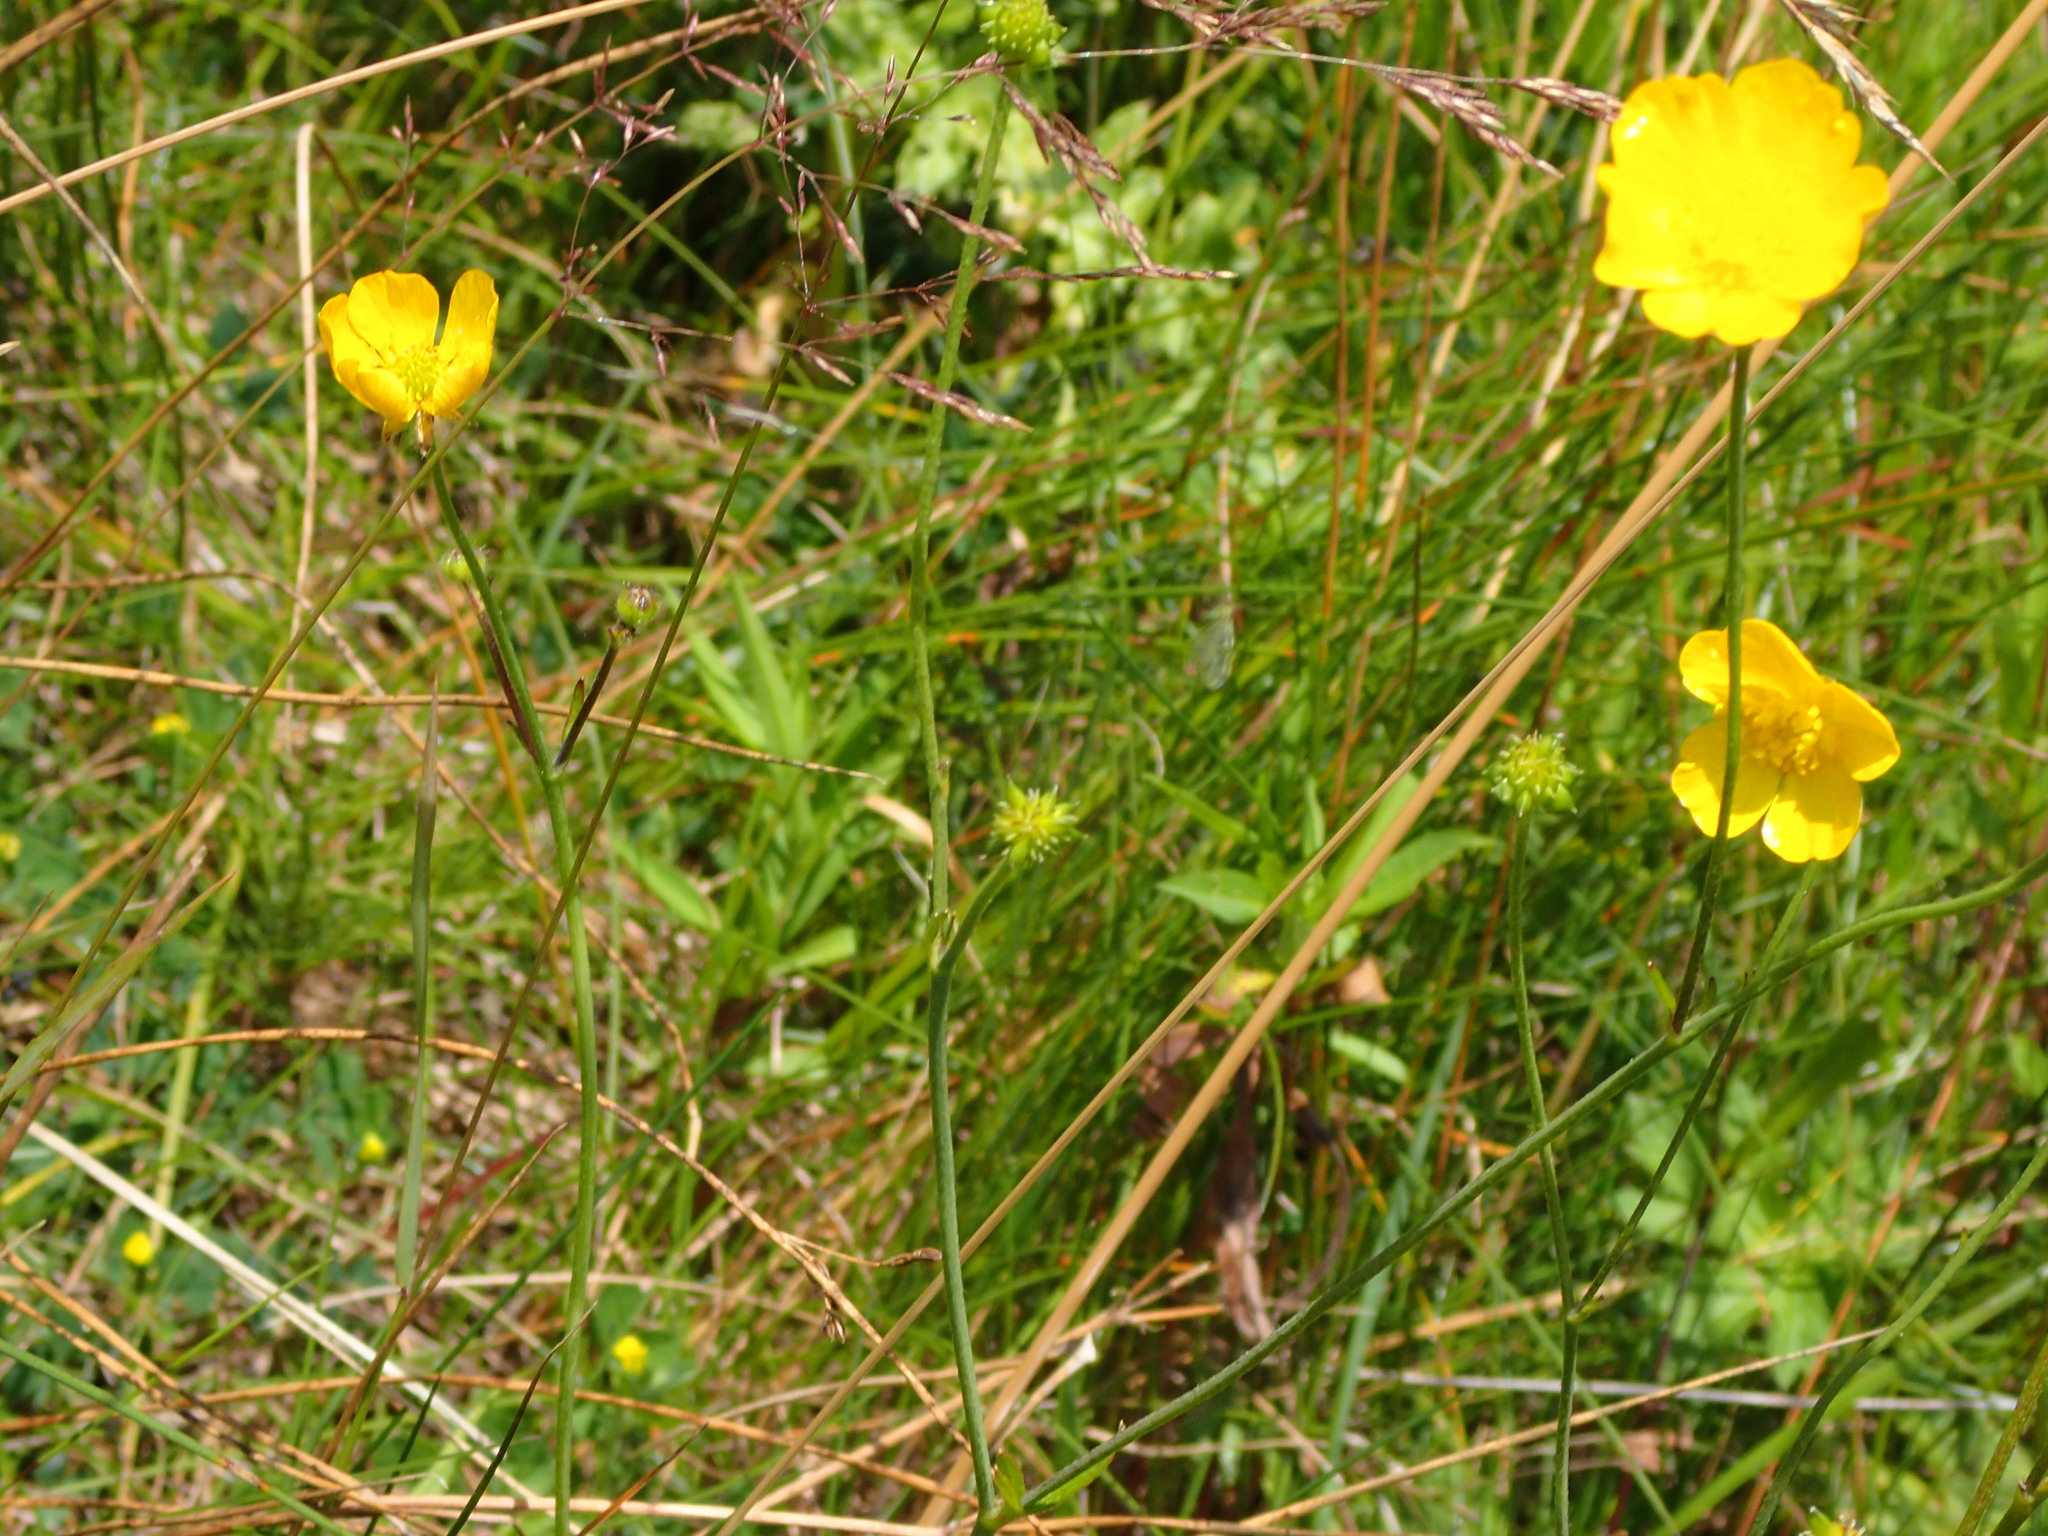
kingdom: Plantae
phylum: Tracheophyta
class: Magnoliopsida
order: Ranunculales
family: Ranunculaceae
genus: Ranunculus
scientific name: Ranunculus acris
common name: Meadow buttercup
